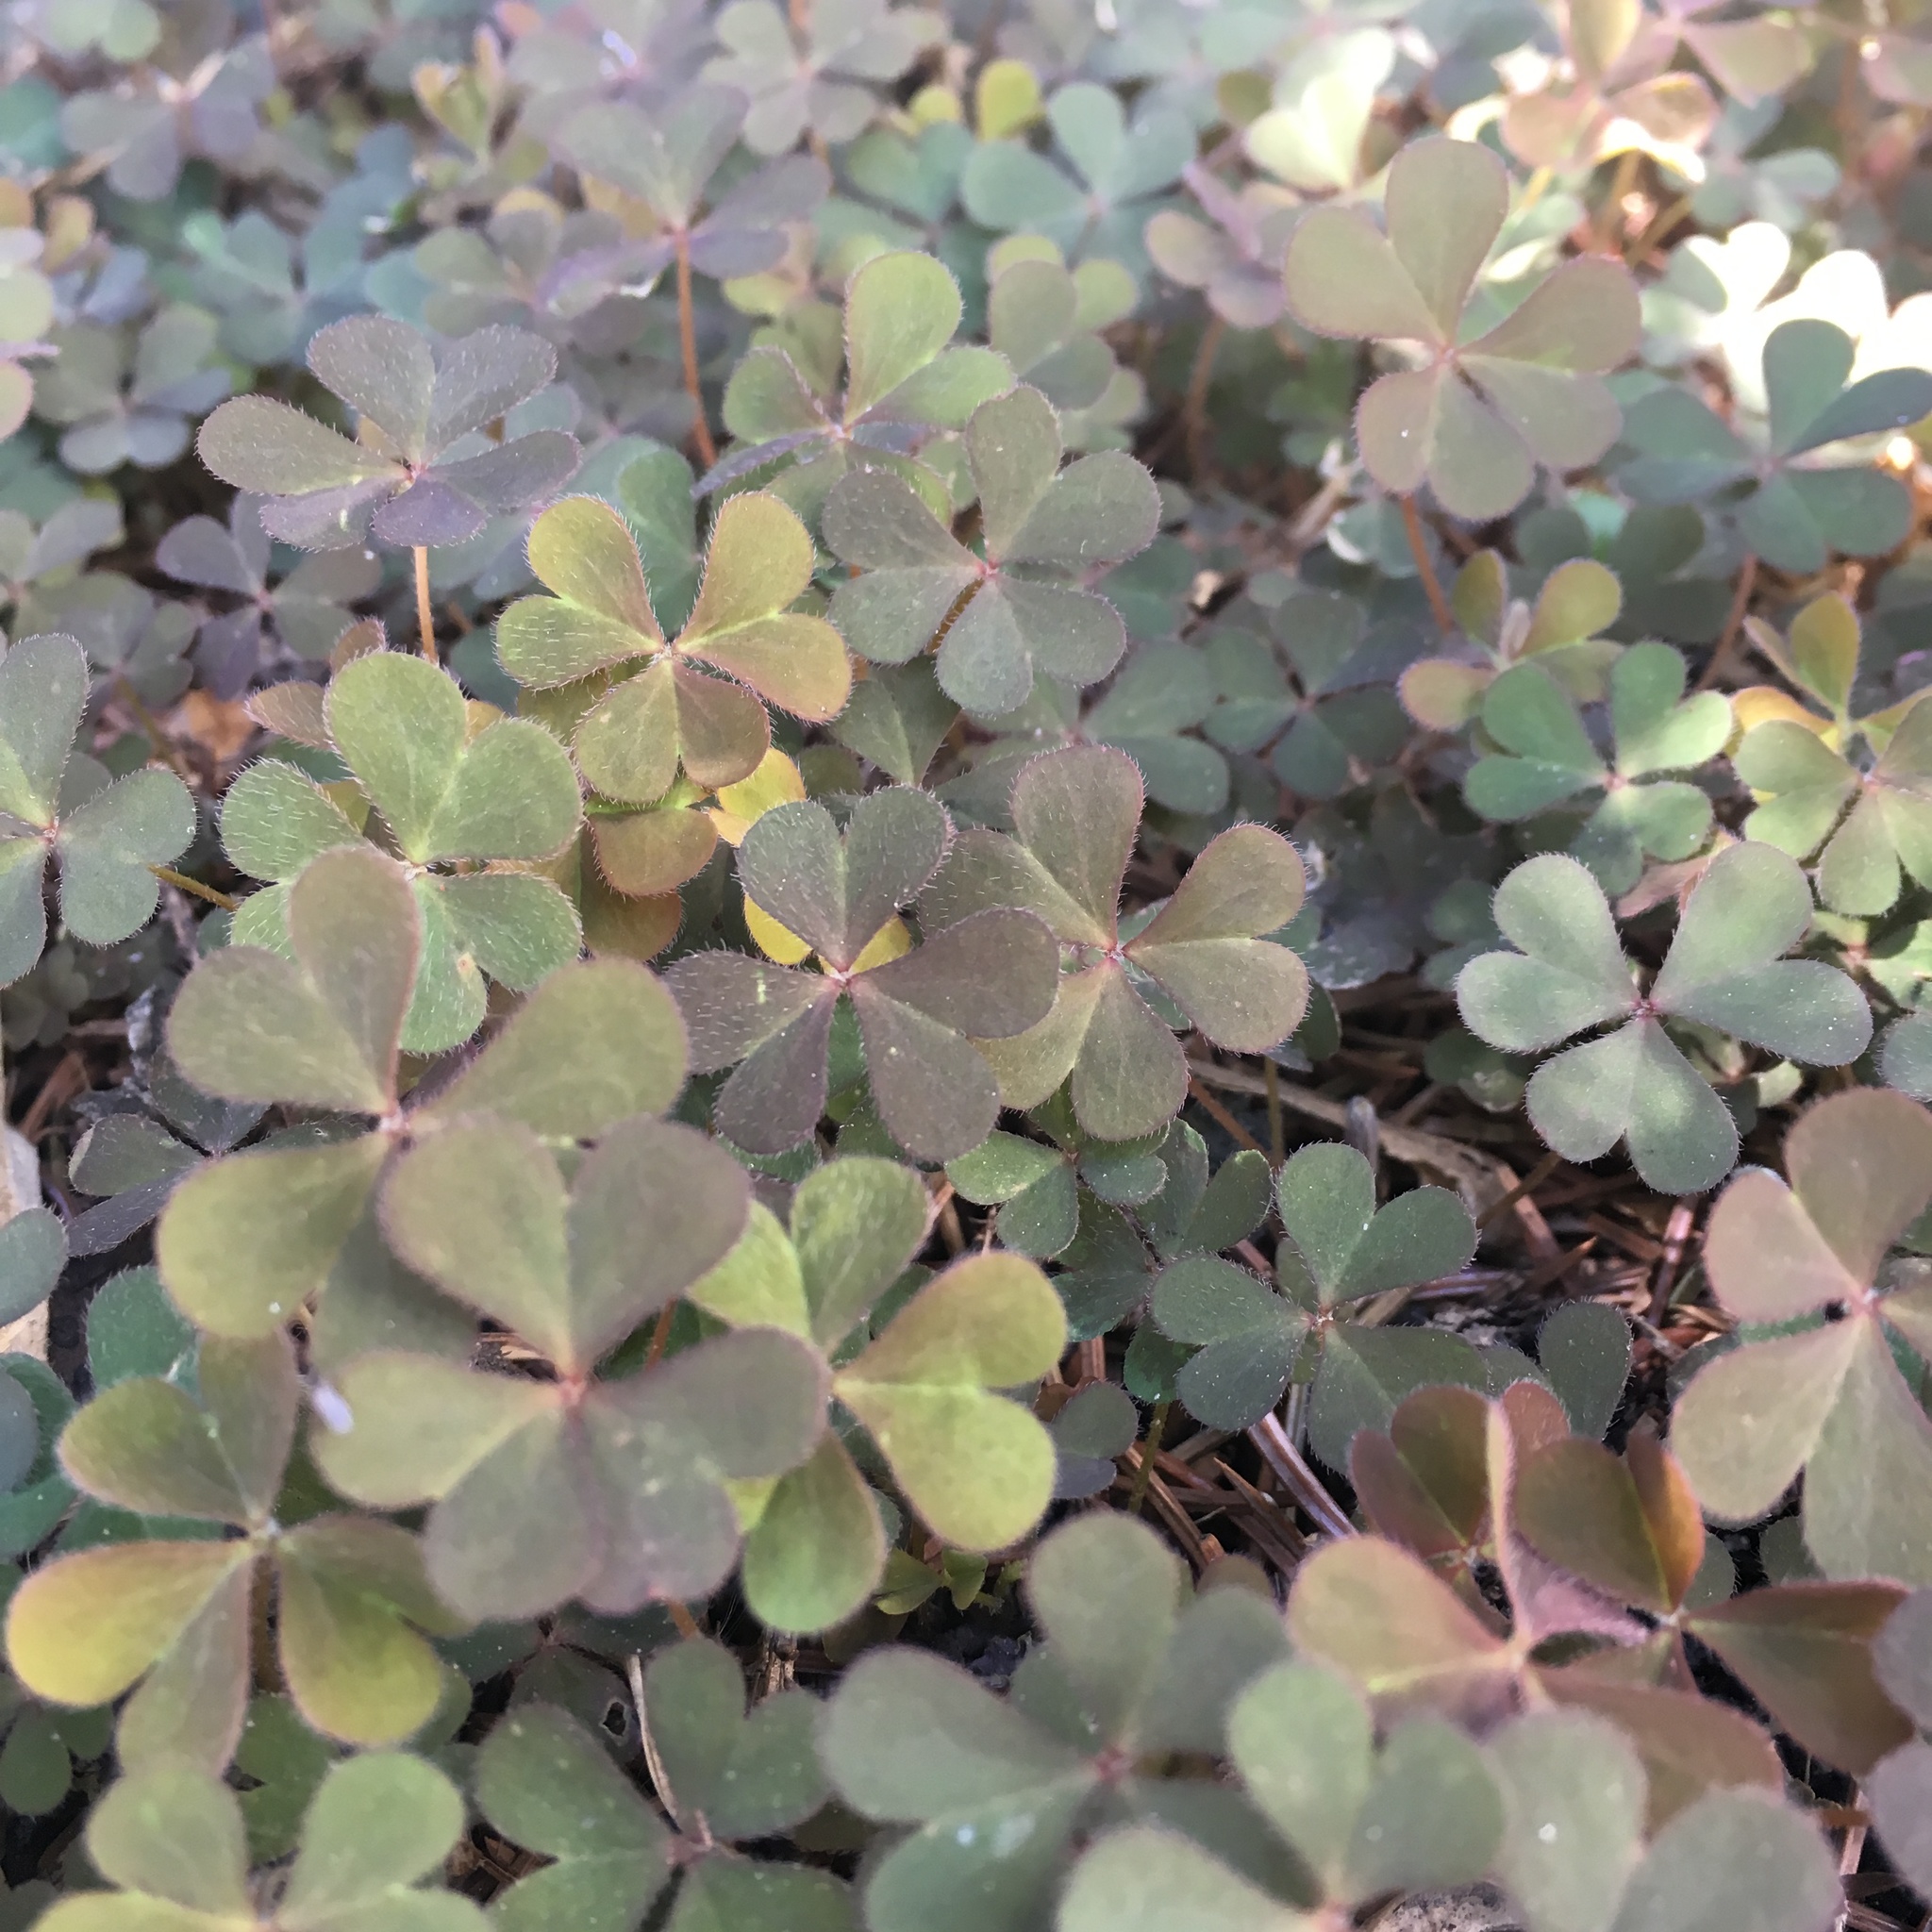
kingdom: Plantae
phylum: Tracheophyta
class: Magnoliopsida
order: Oxalidales
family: Oxalidaceae
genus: Oxalis
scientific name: Oxalis corniculata
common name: Procumbent yellow-sorrel
